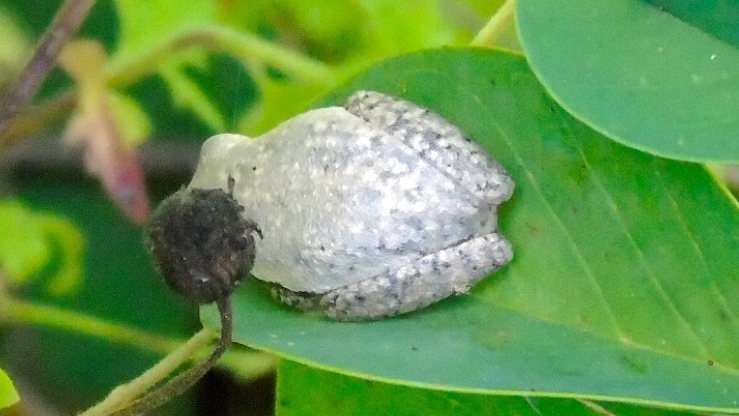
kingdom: Animalia
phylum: Chordata
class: Amphibia
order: Anura
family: Hylidae
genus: Tlalocohyla
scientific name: Tlalocohyla smithii
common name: Dwarf mexican treefrog
